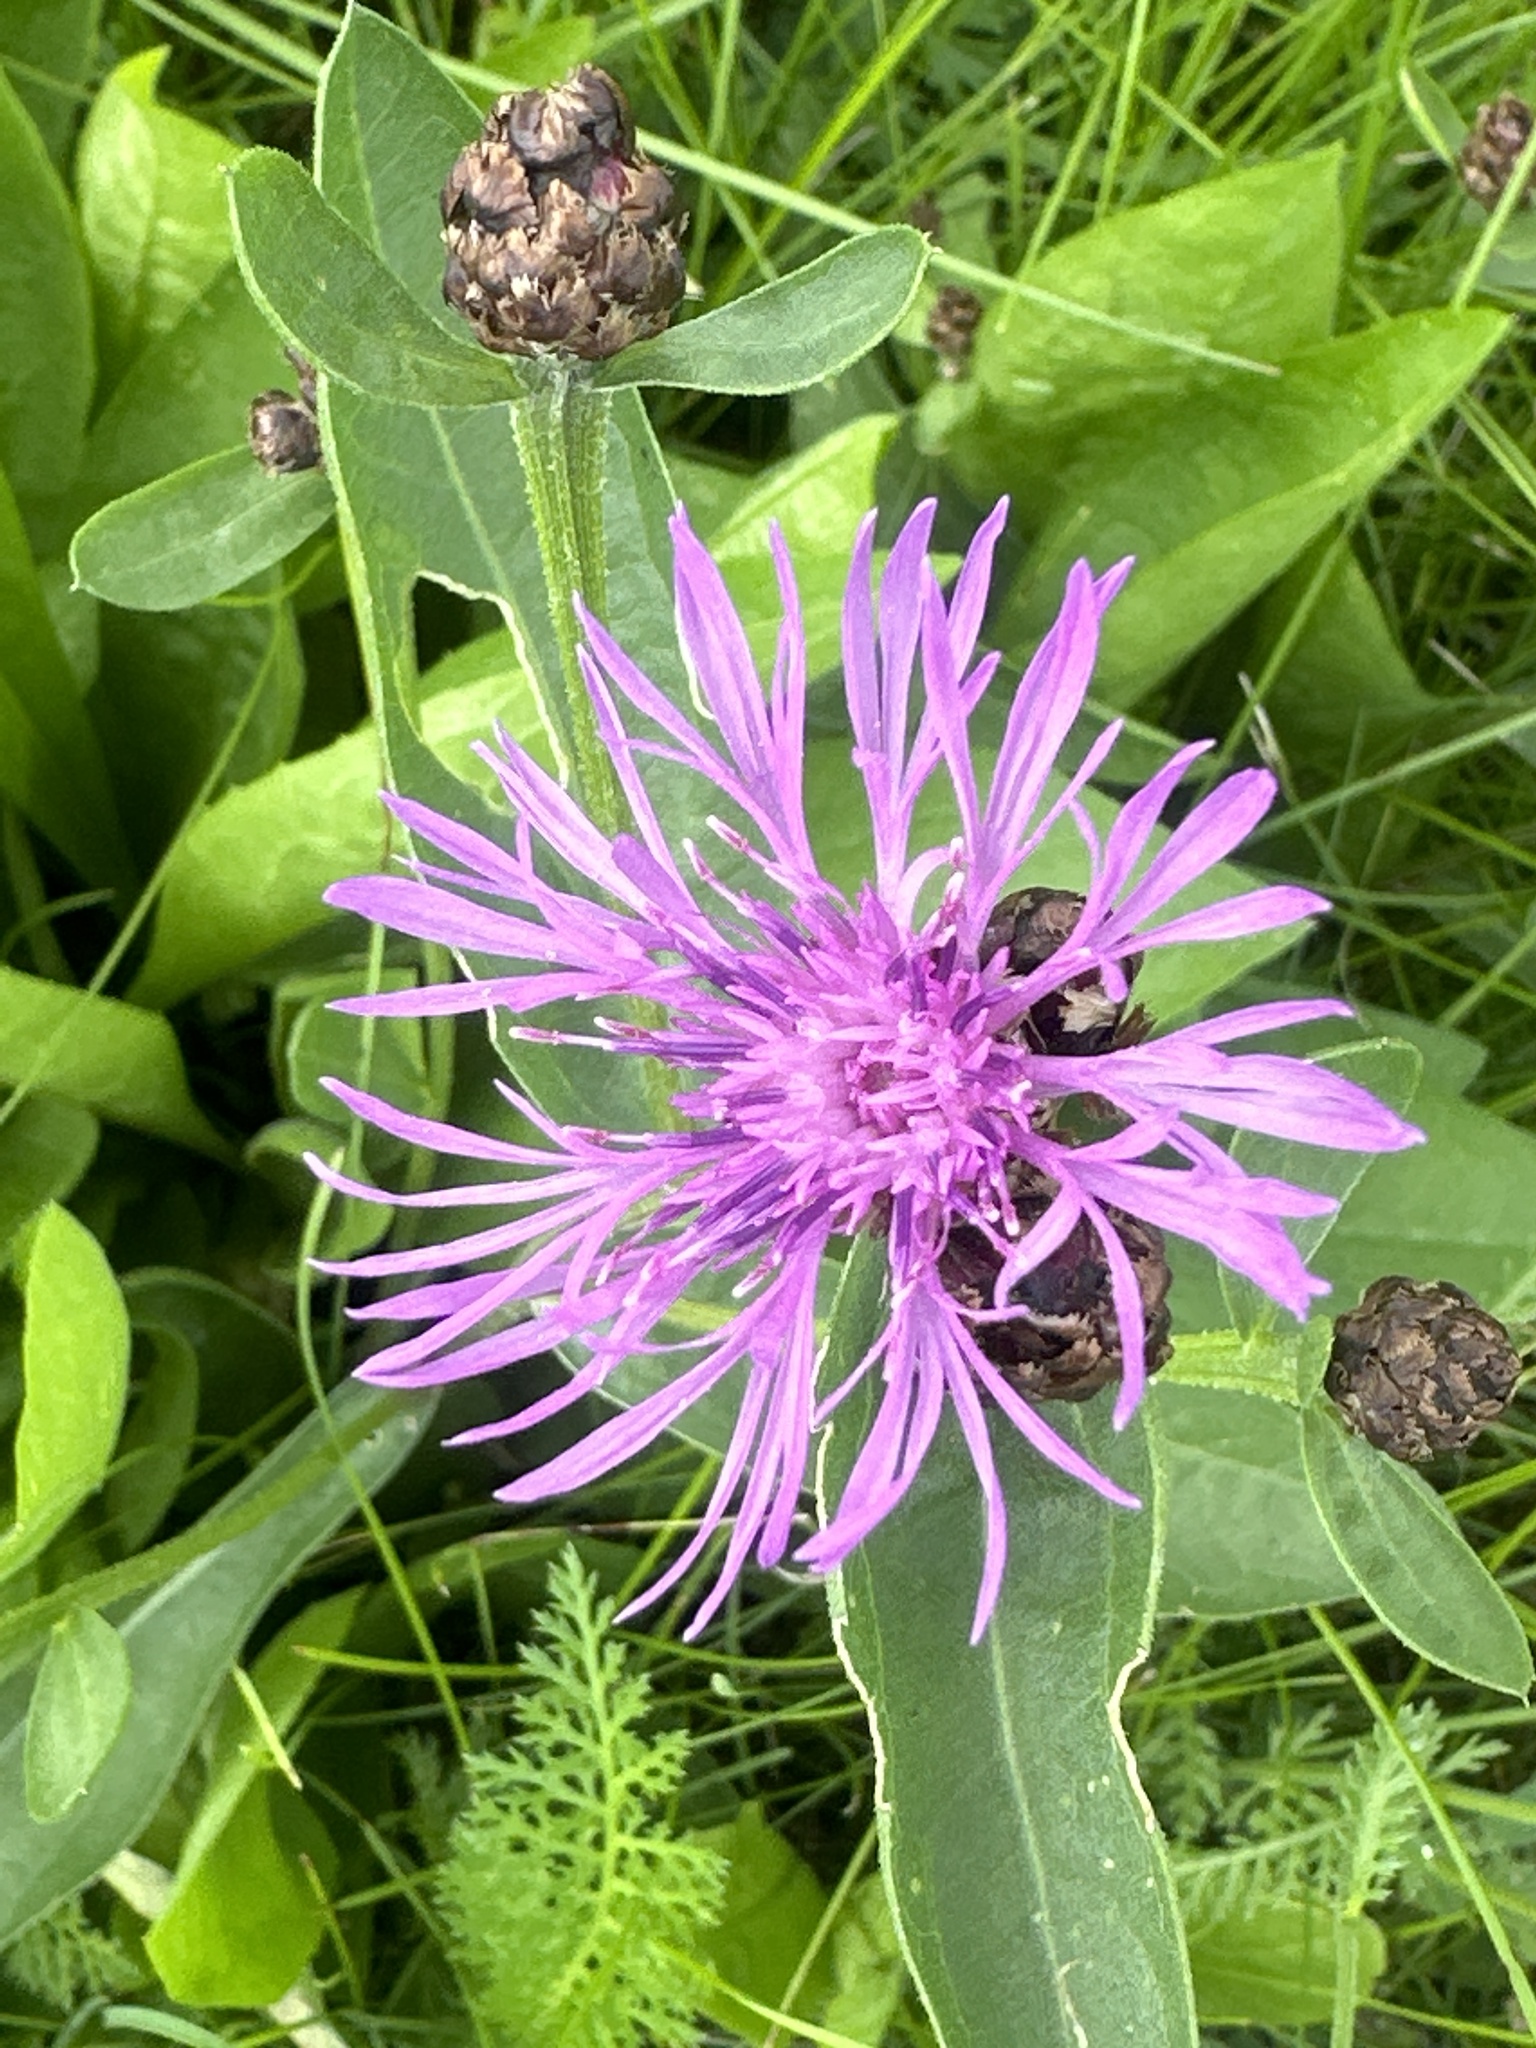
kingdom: Plantae
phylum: Tracheophyta
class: Magnoliopsida
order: Asterales
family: Asteraceae
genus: Centaurea
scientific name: Centaurea jacea
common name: Brown knapweed
